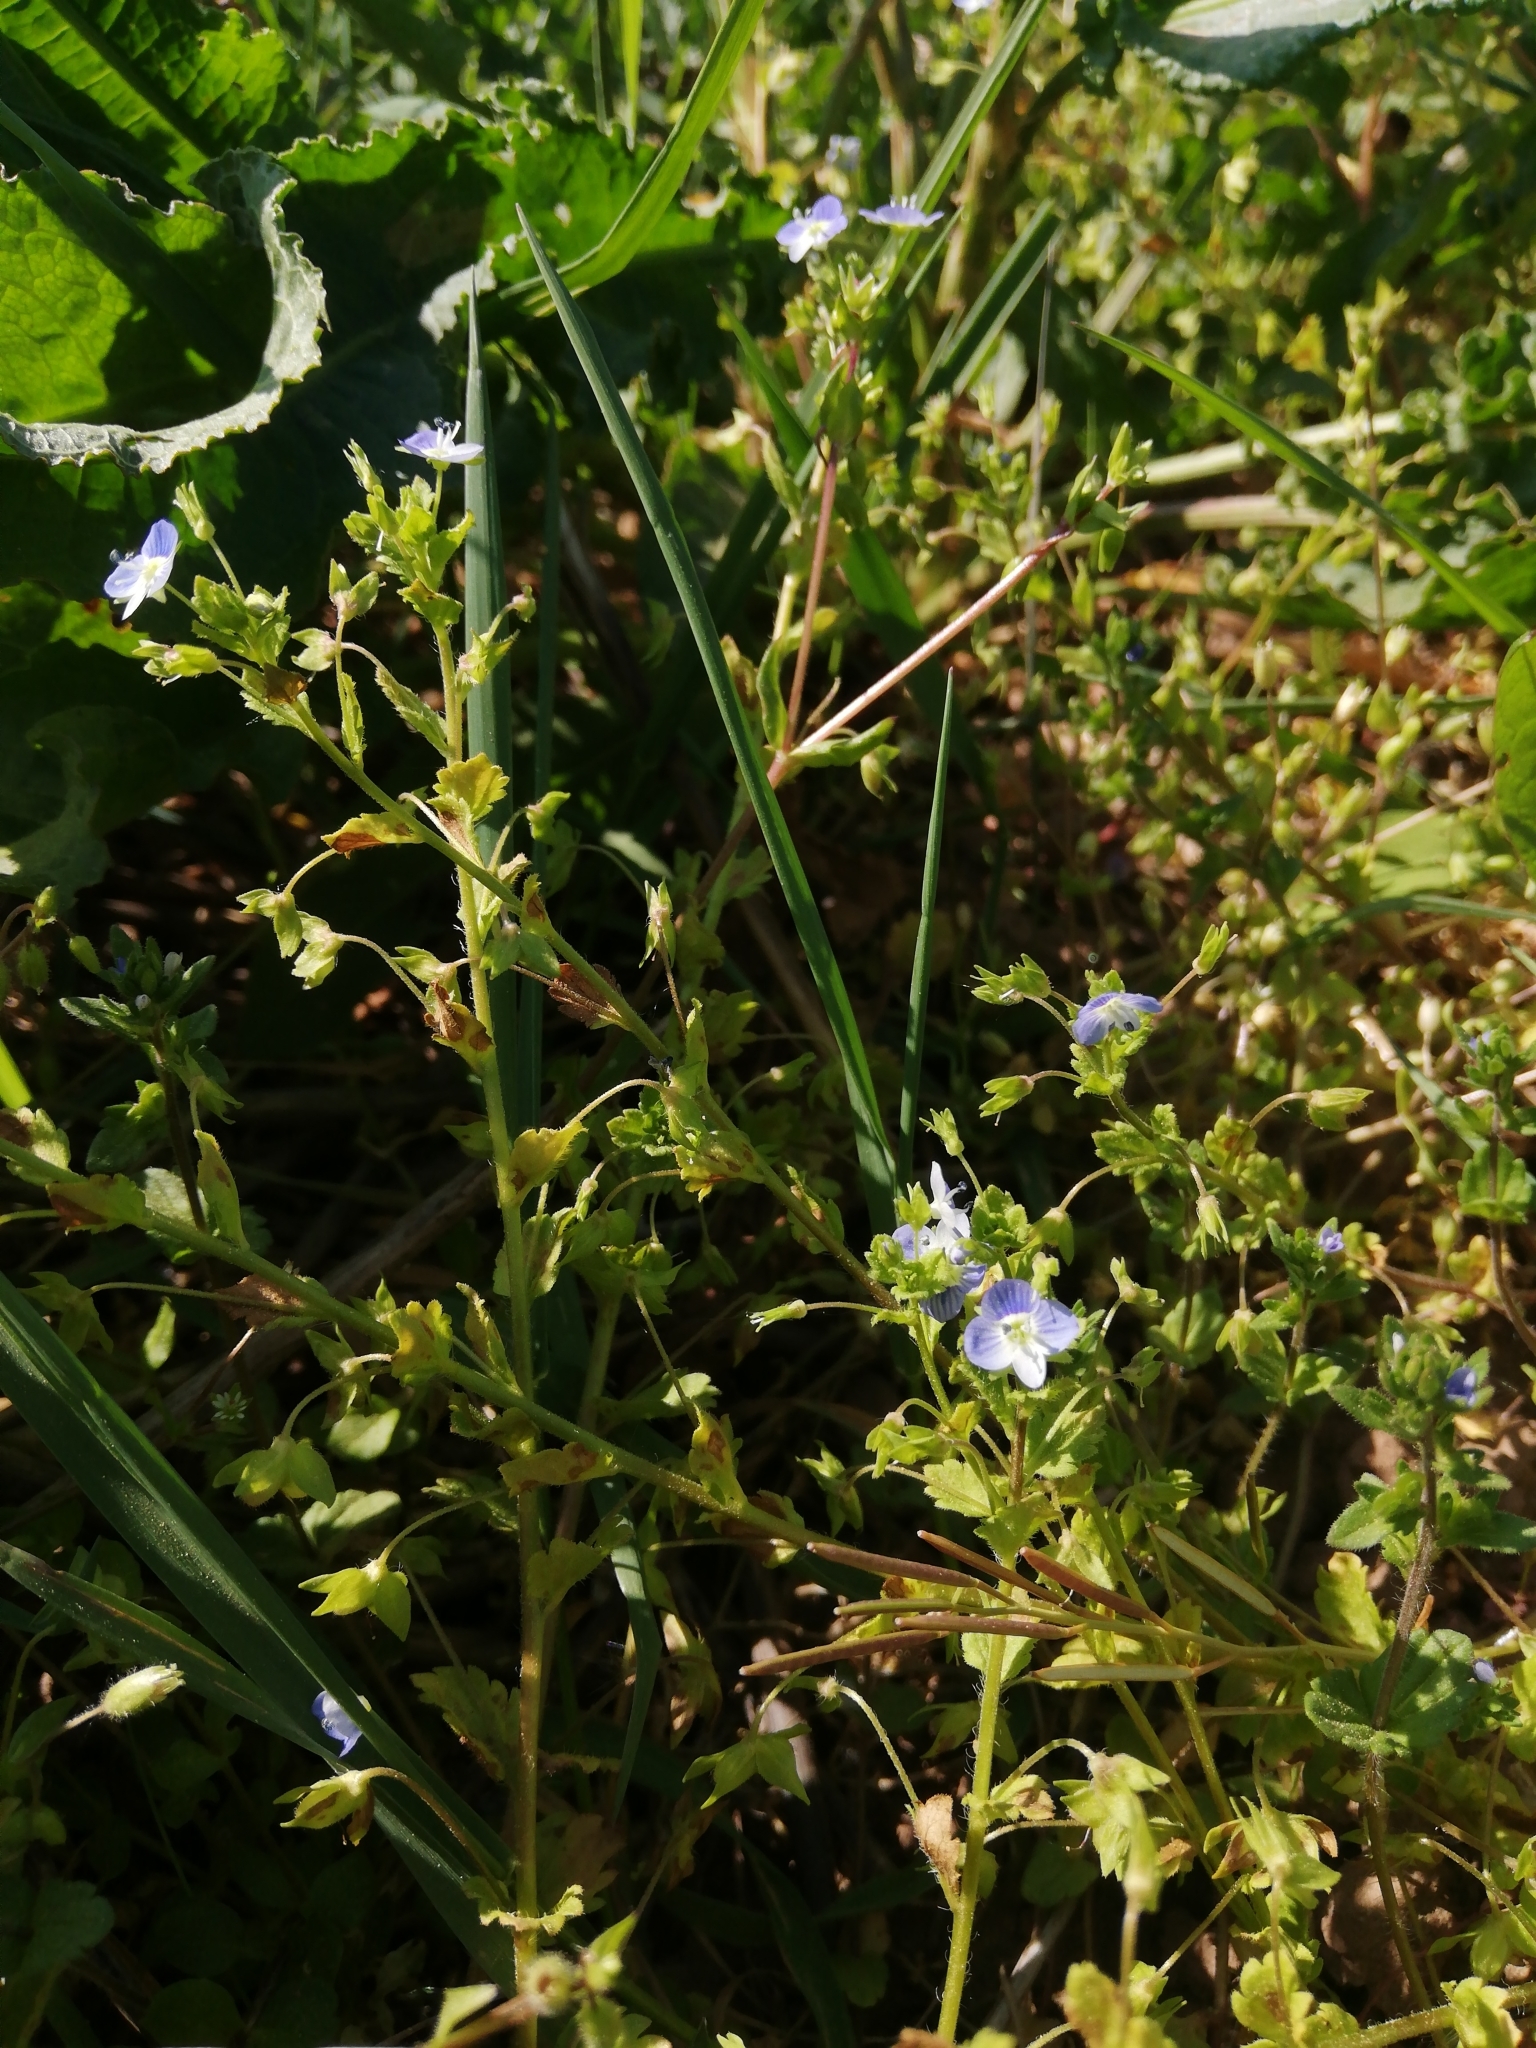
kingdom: Plantae
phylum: Tracheophyta
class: Magnoliopsida
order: Lamiales
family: Plantaginaceae
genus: Veronica
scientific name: Veronica persica
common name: Common field-speedwell
